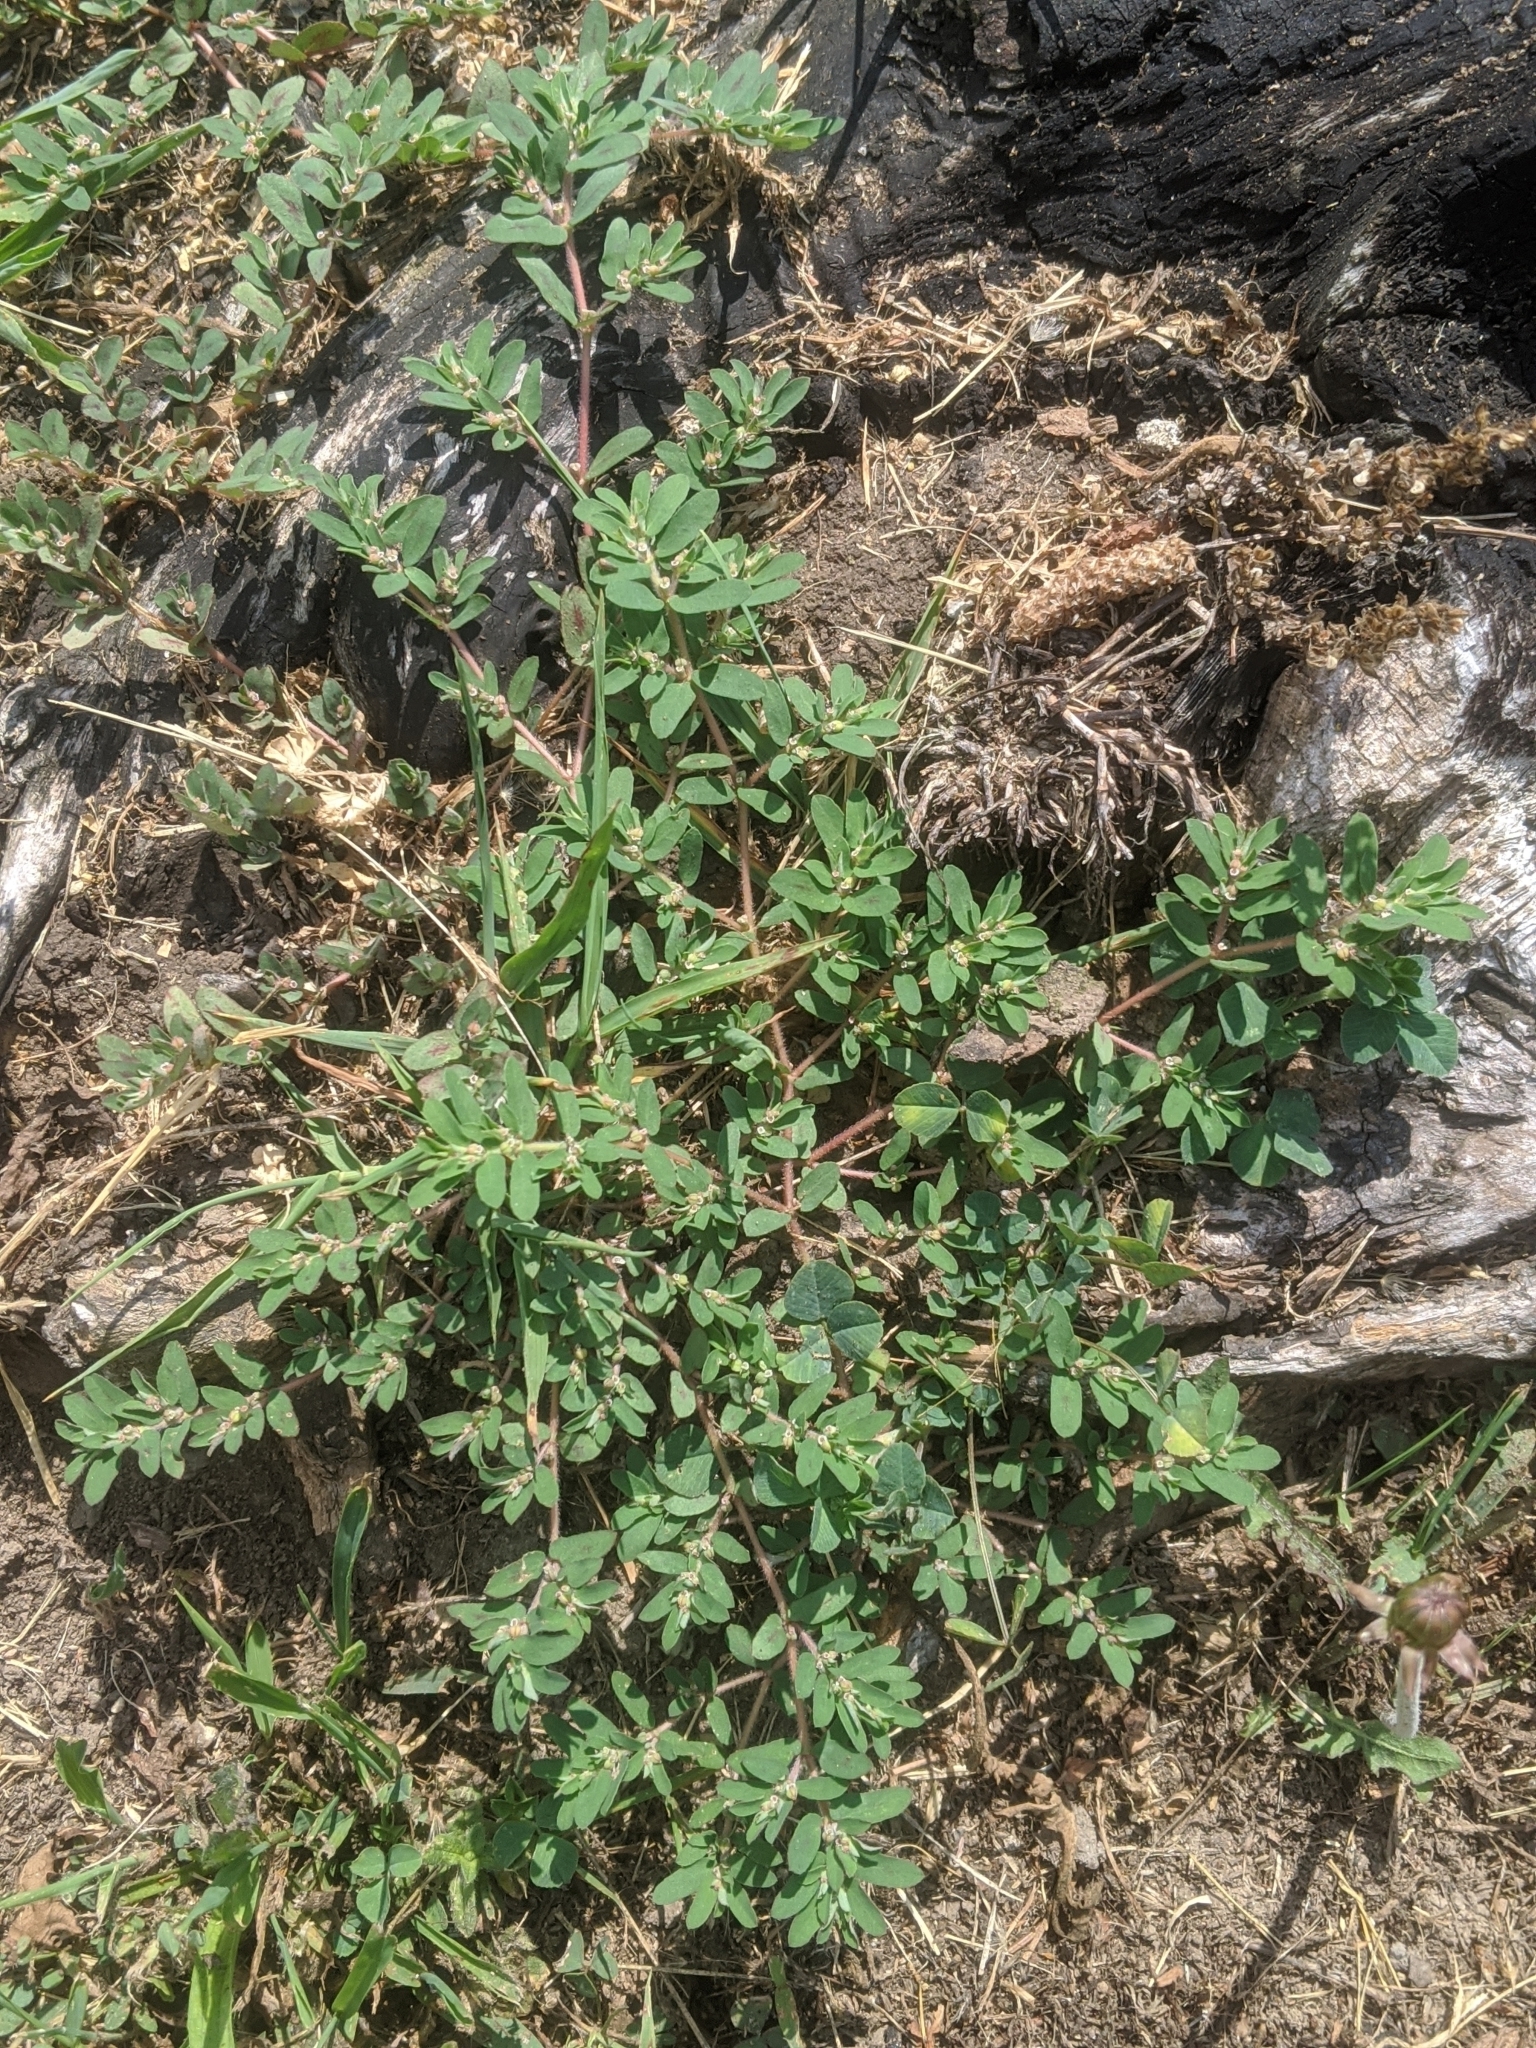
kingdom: Plantae
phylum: Tracheophyta
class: Magnoliopsida
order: Malpighiales
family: Euphorbiaceae
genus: Euphorbia
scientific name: Euphorbia maculata
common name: Spotted spurge
